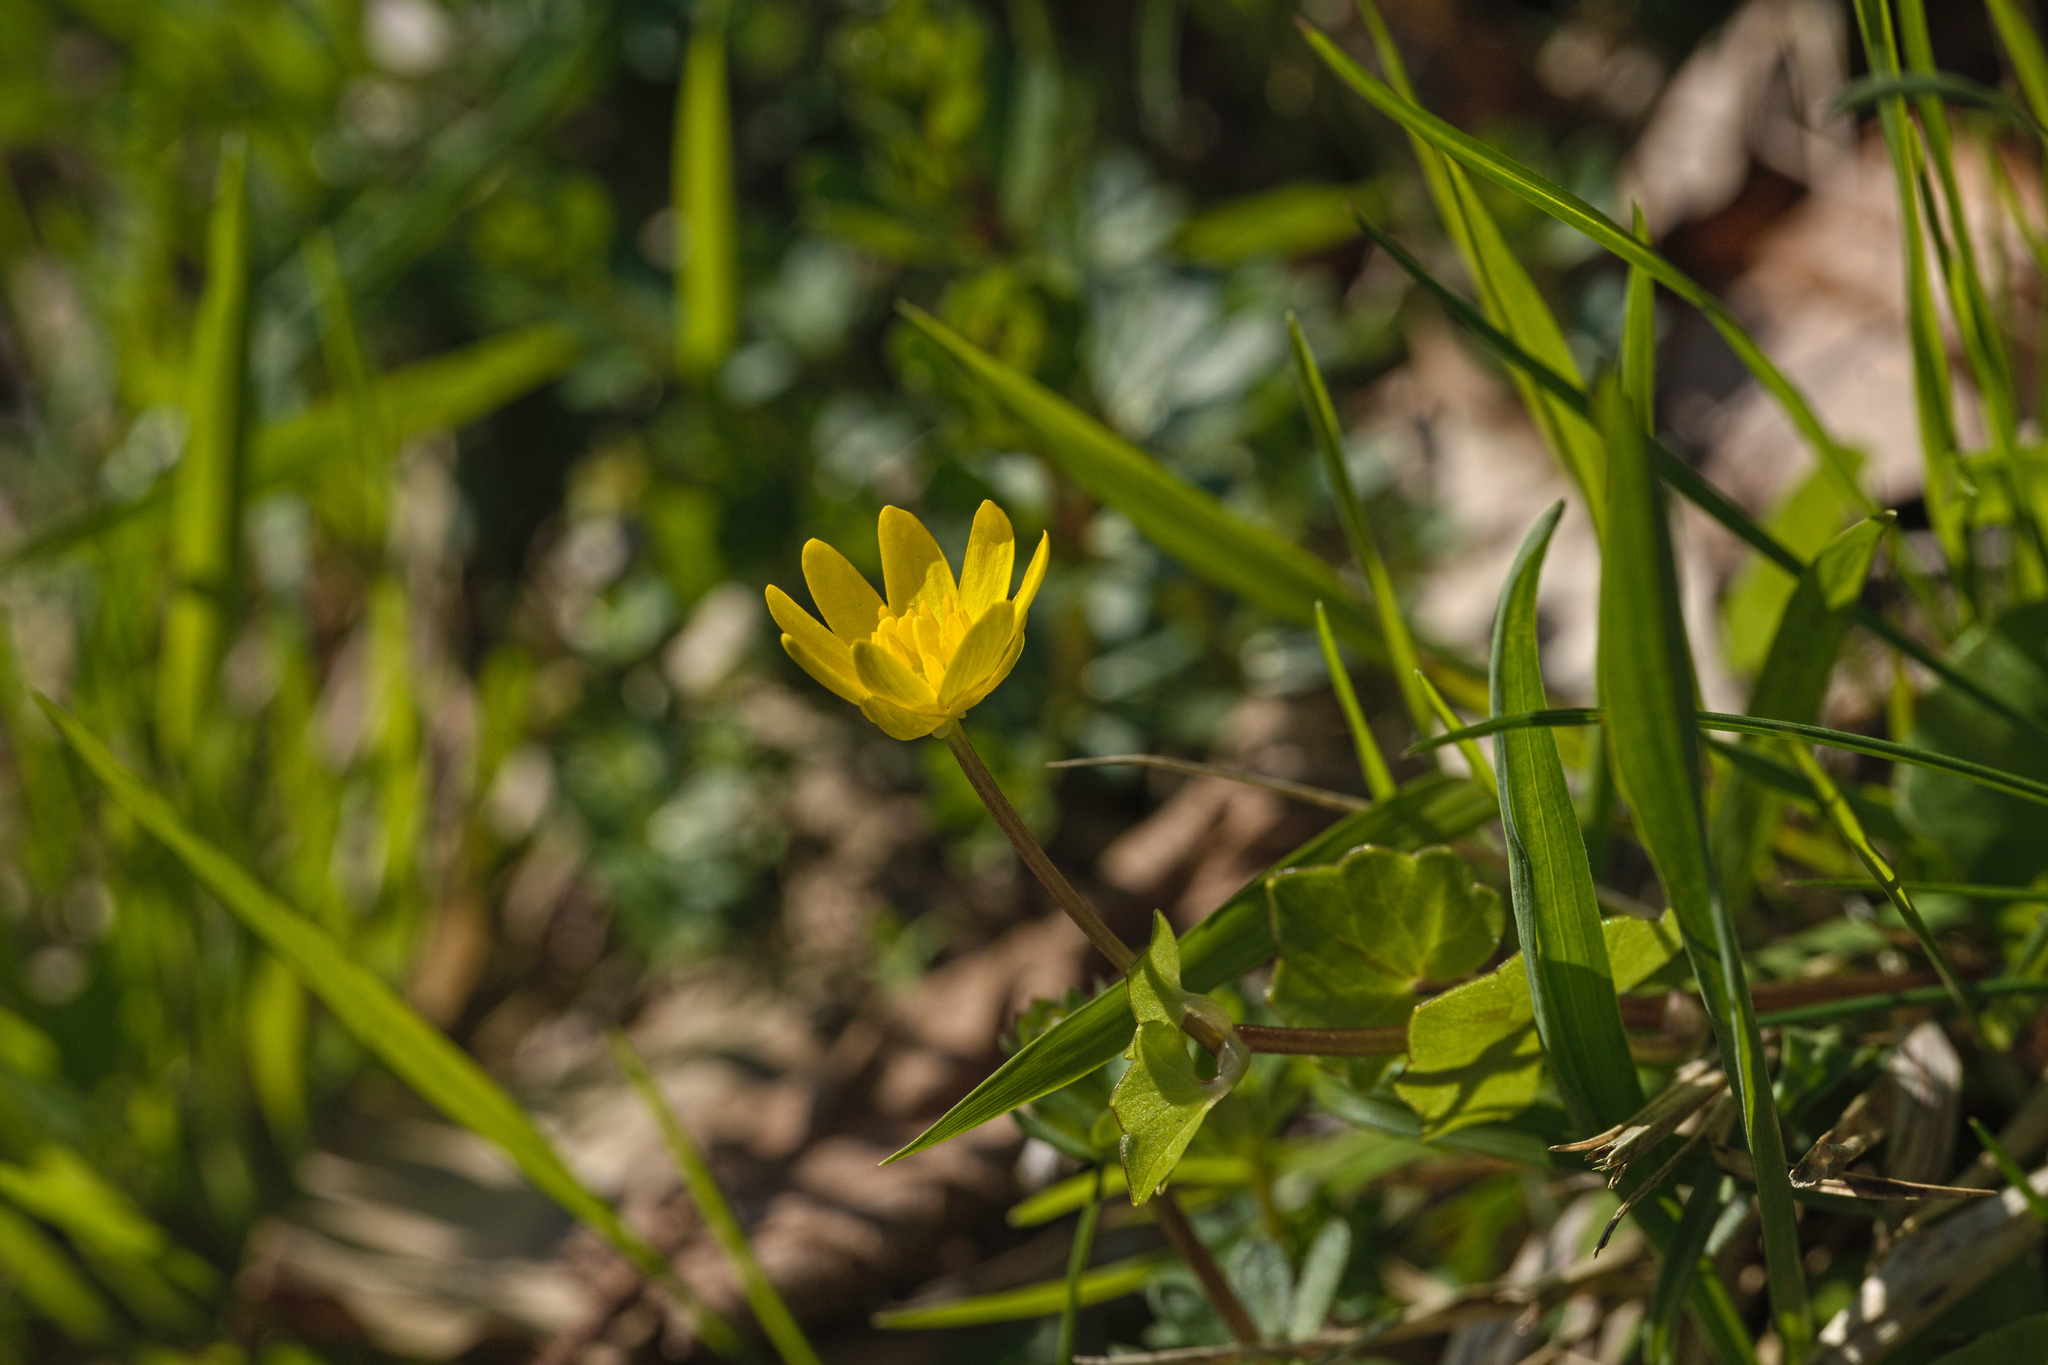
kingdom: Plantae
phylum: Tracheophyta
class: Magnoliopsida
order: Ranunculales
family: Ranunculaceae
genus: Ficaria
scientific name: Ficaria verna
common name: Lesser celandine
